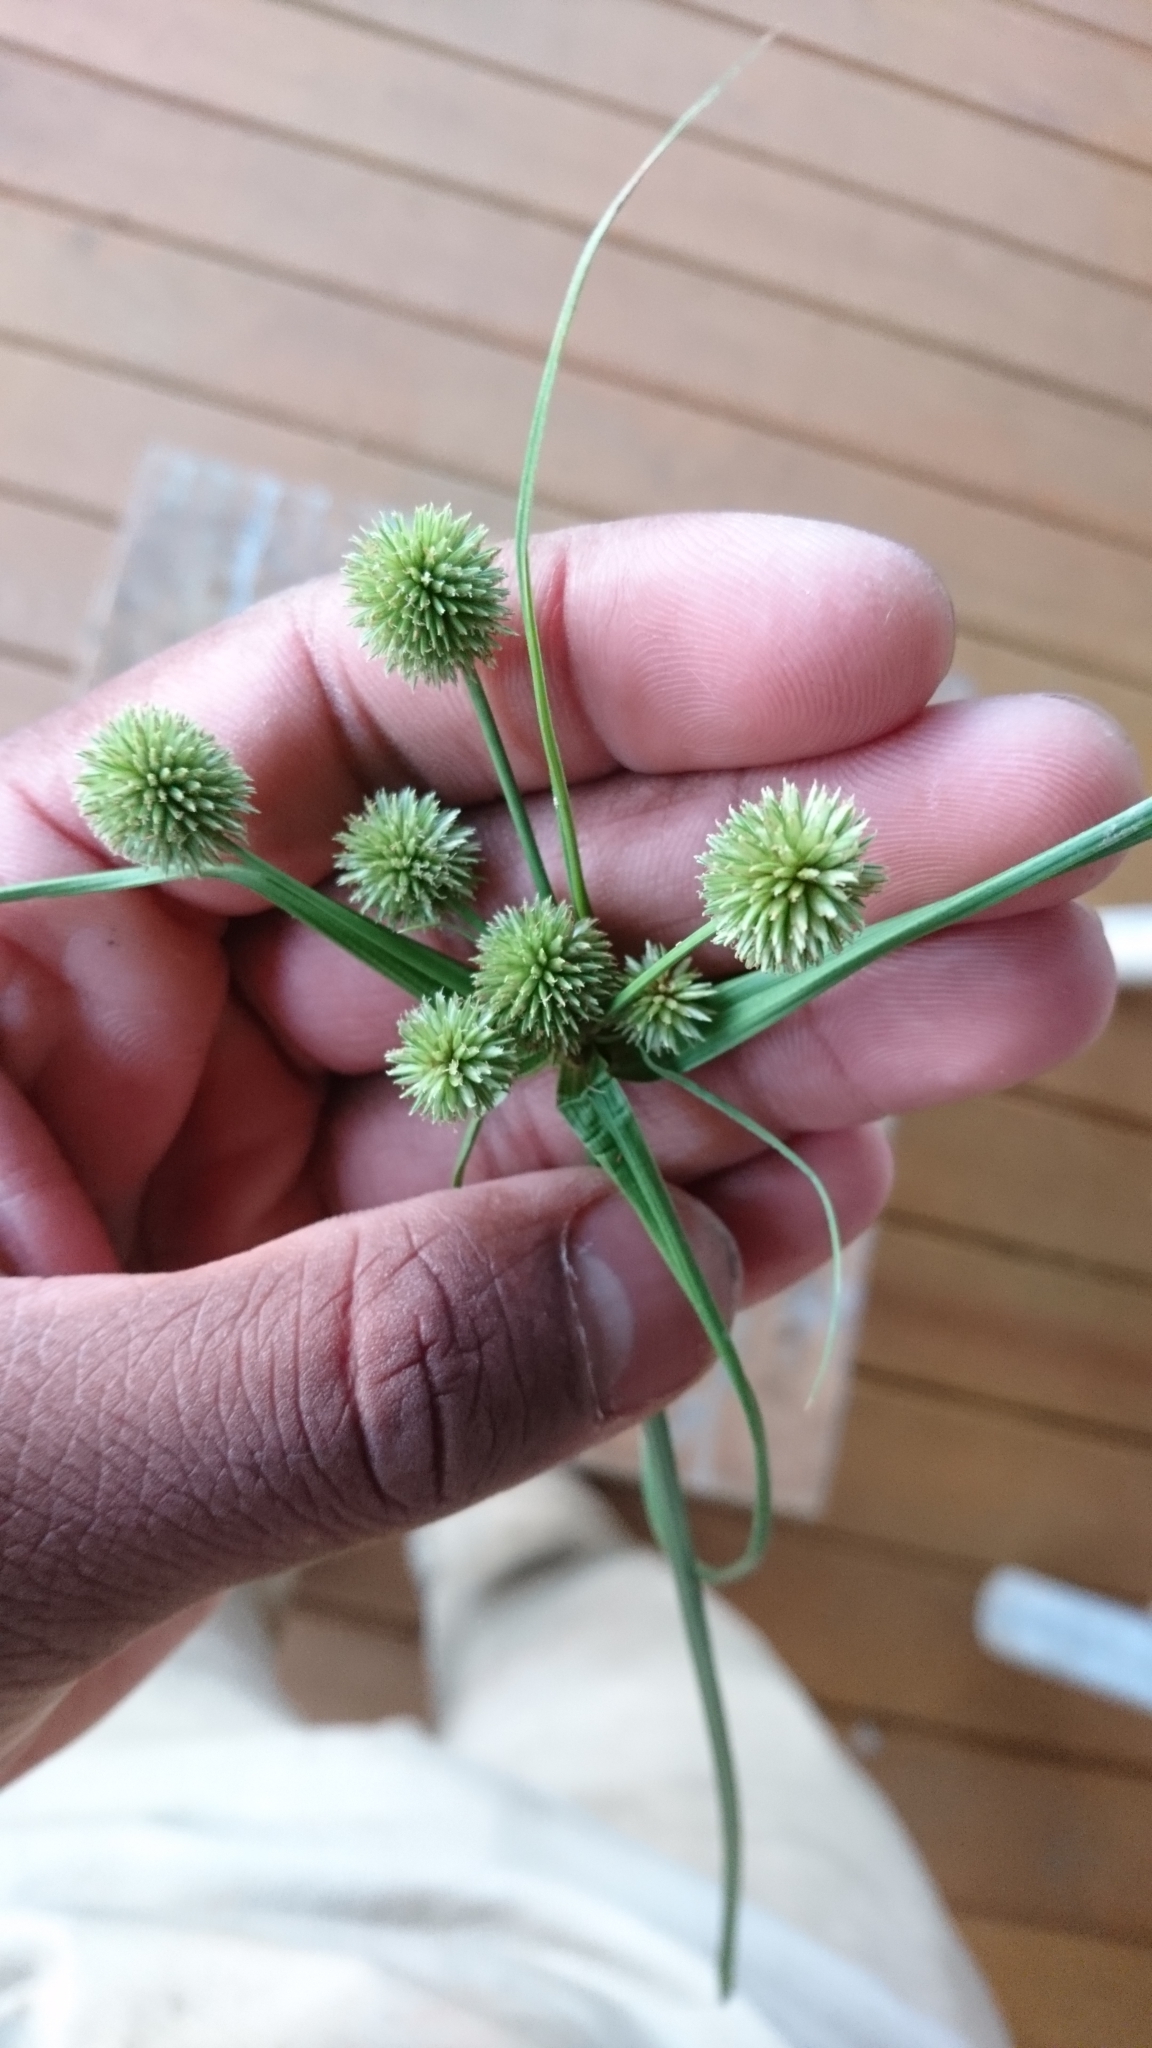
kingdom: Plantae
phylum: Tracheophyta
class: Liliopsida
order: Poales
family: Cyperaceae
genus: Cyperus
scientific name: Cyperus echinatus
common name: Teasel sedge
